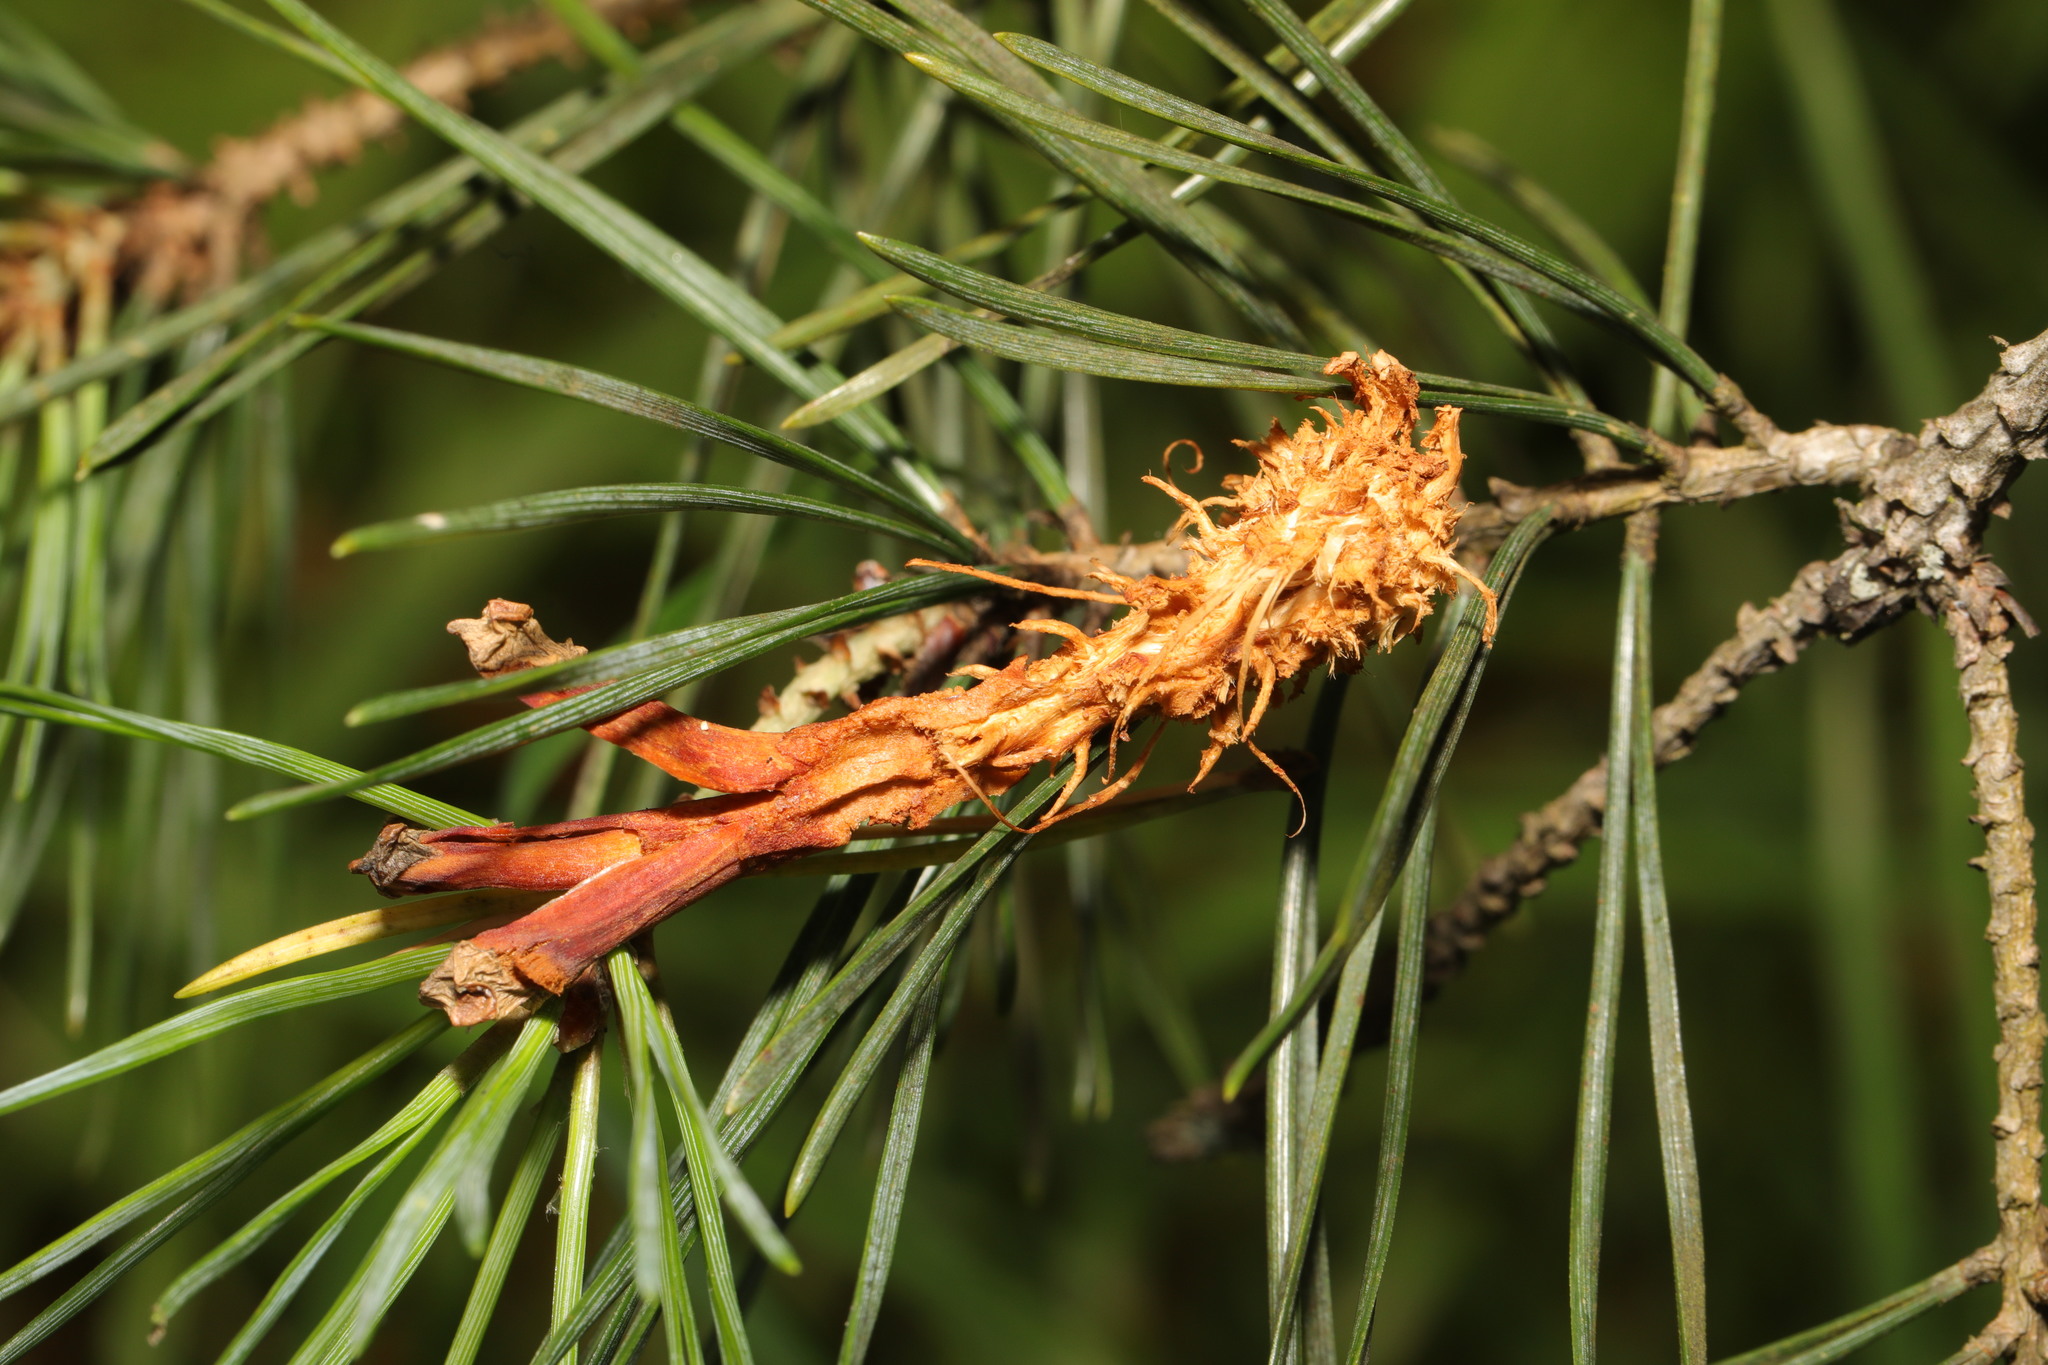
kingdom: Animalia
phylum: Chordata
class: Mammalia
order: Rodentia
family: Sciuridae
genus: Sciurus
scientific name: Sciurus carolinensis
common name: Eastern gray squirrel
